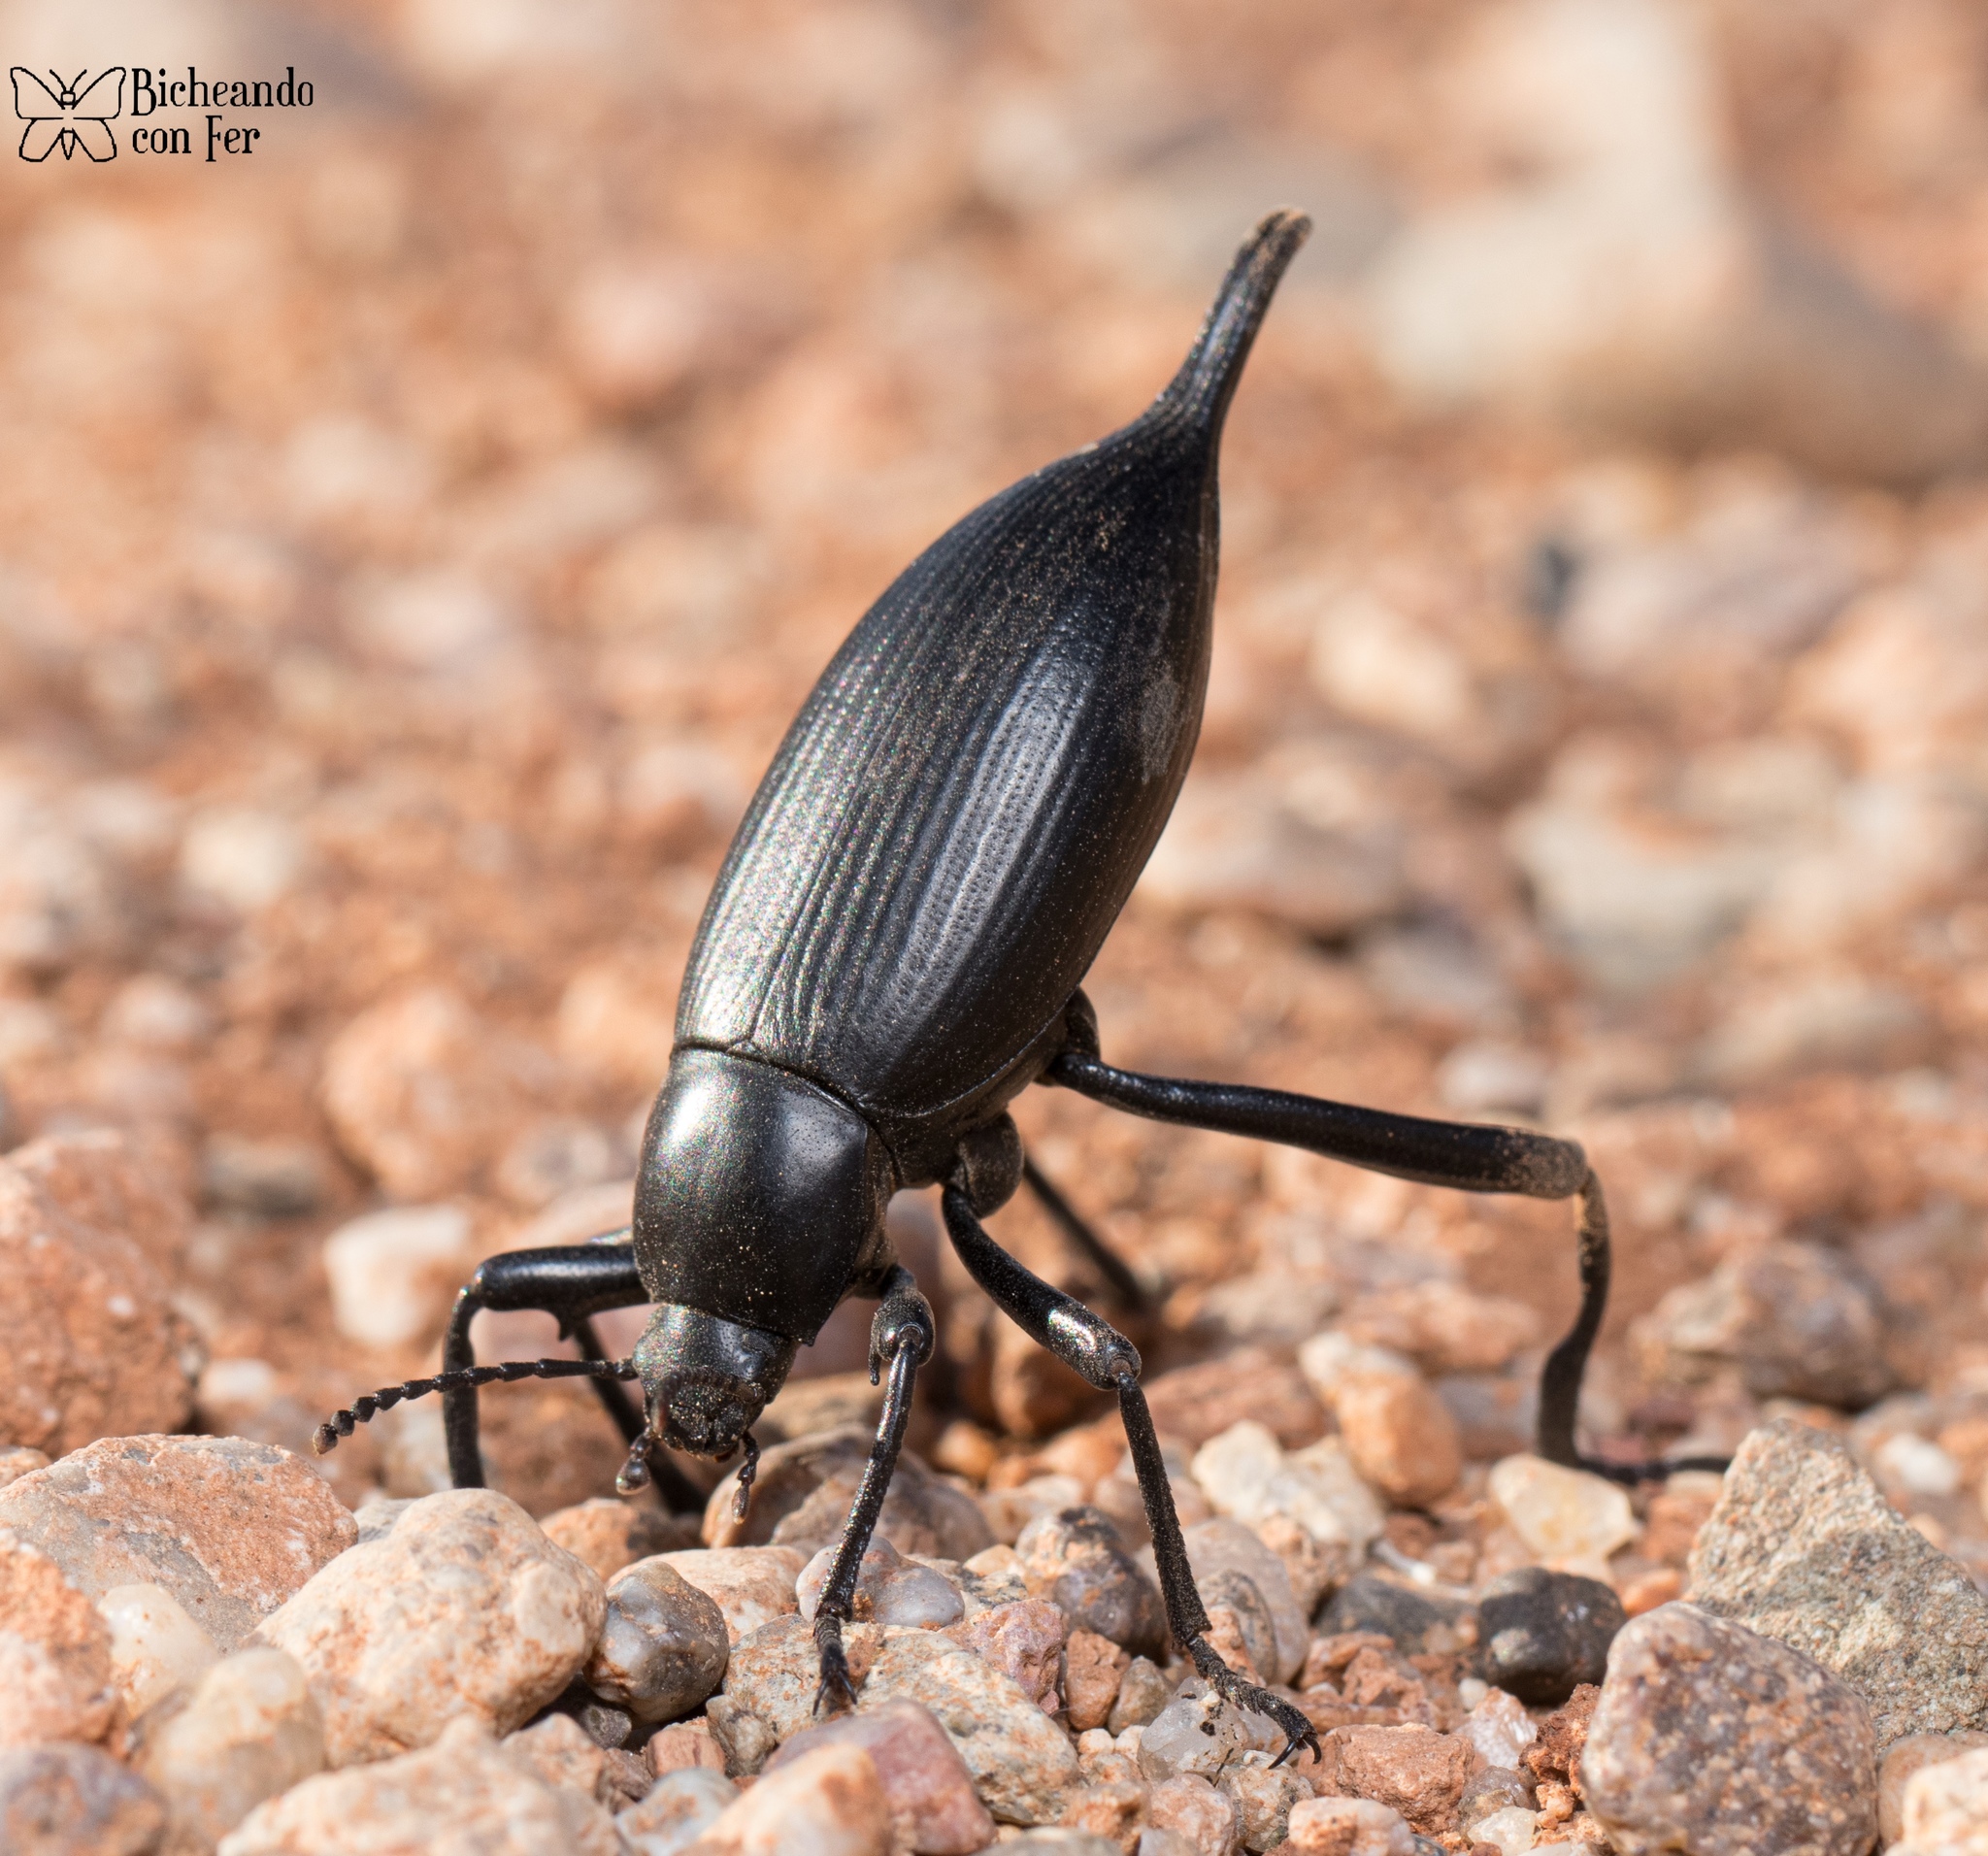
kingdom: Animalia
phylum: Arthropoda
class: Insecta
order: Coleoptera
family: Tenebrionidae
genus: Eleodes
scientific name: Eleodes eschscholtzii
